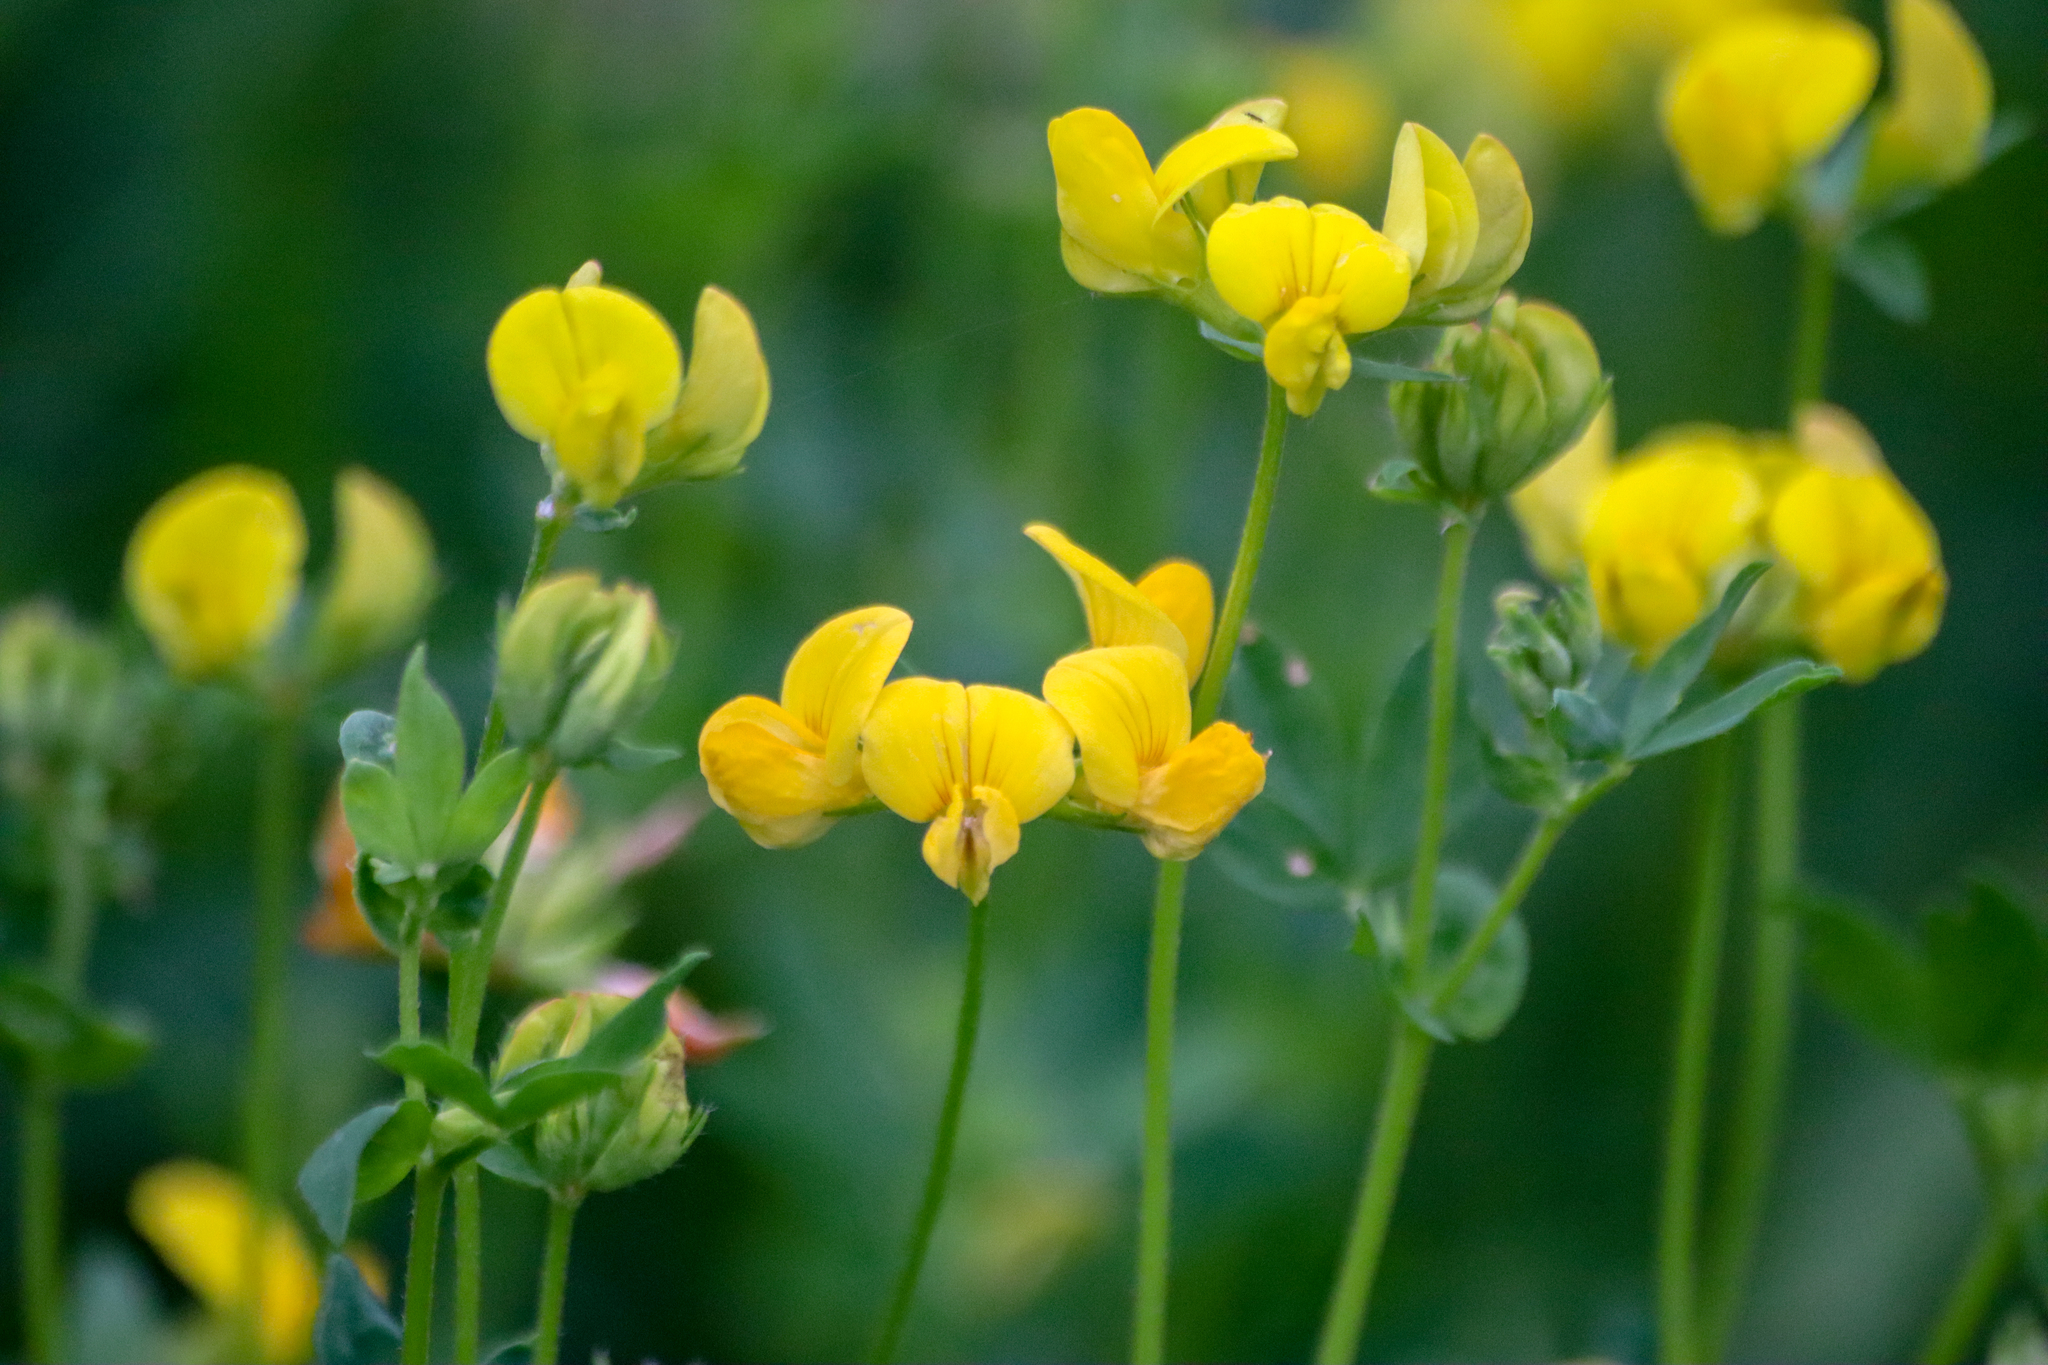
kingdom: Plantae
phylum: Tracheophyta
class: Magnoliopsida
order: Fabales
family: Fabaceae
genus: Lotus
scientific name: Lotus corniculatus
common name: Common bird's-foot-trefoil
